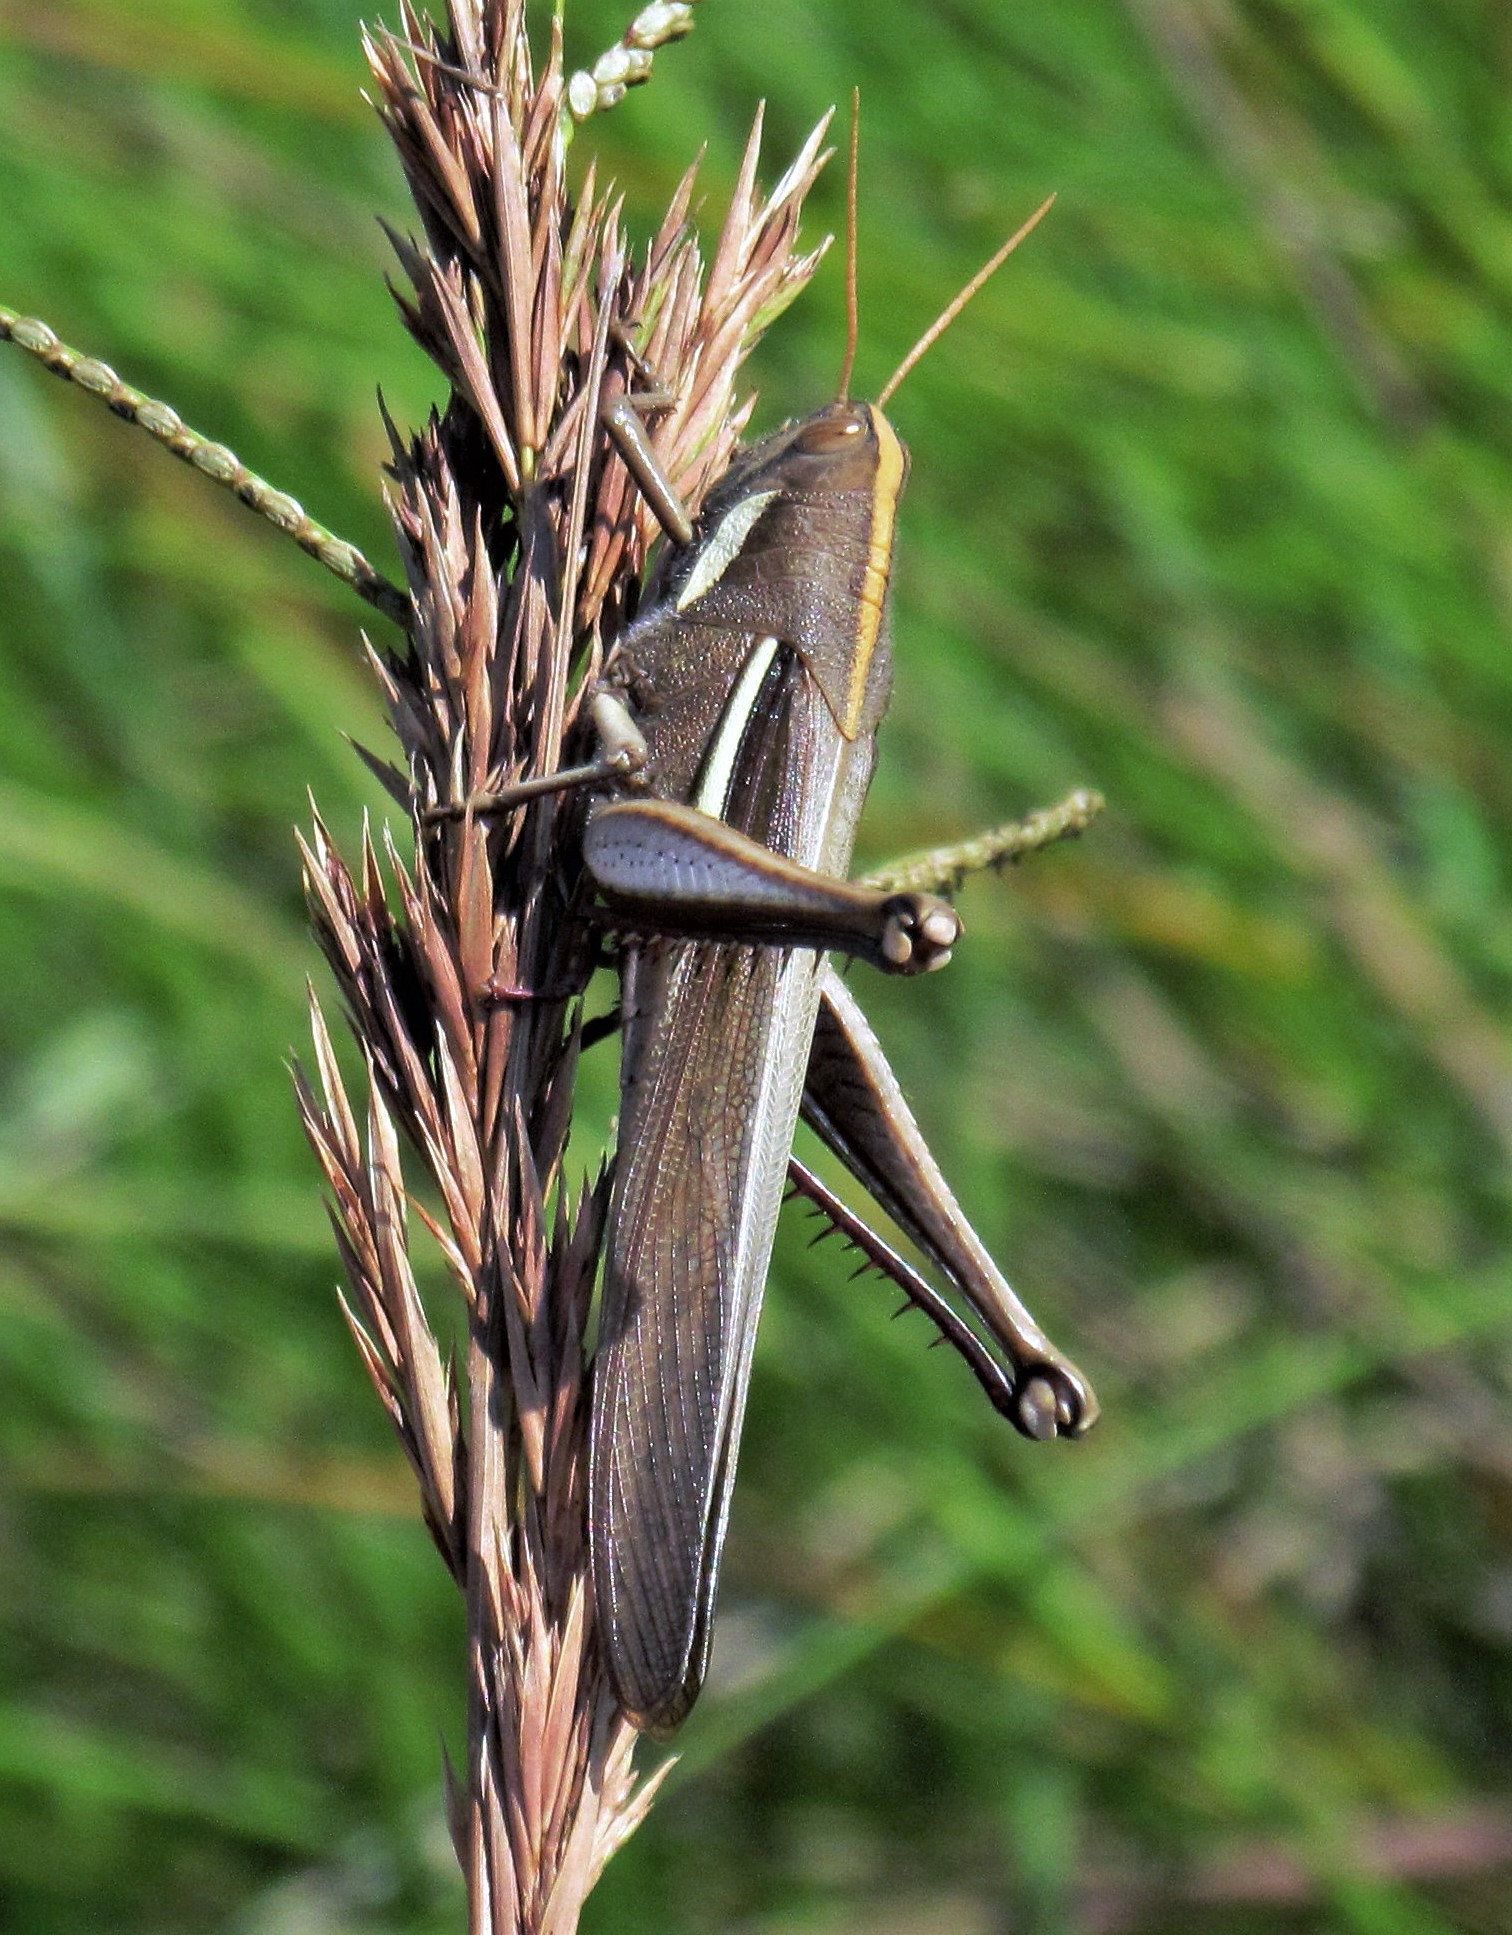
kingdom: Animalia
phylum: Arthropoda
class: Insecta
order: Orthoptera
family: Acrididae
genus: Schistocerca
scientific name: Schistocerca flavofasciata
